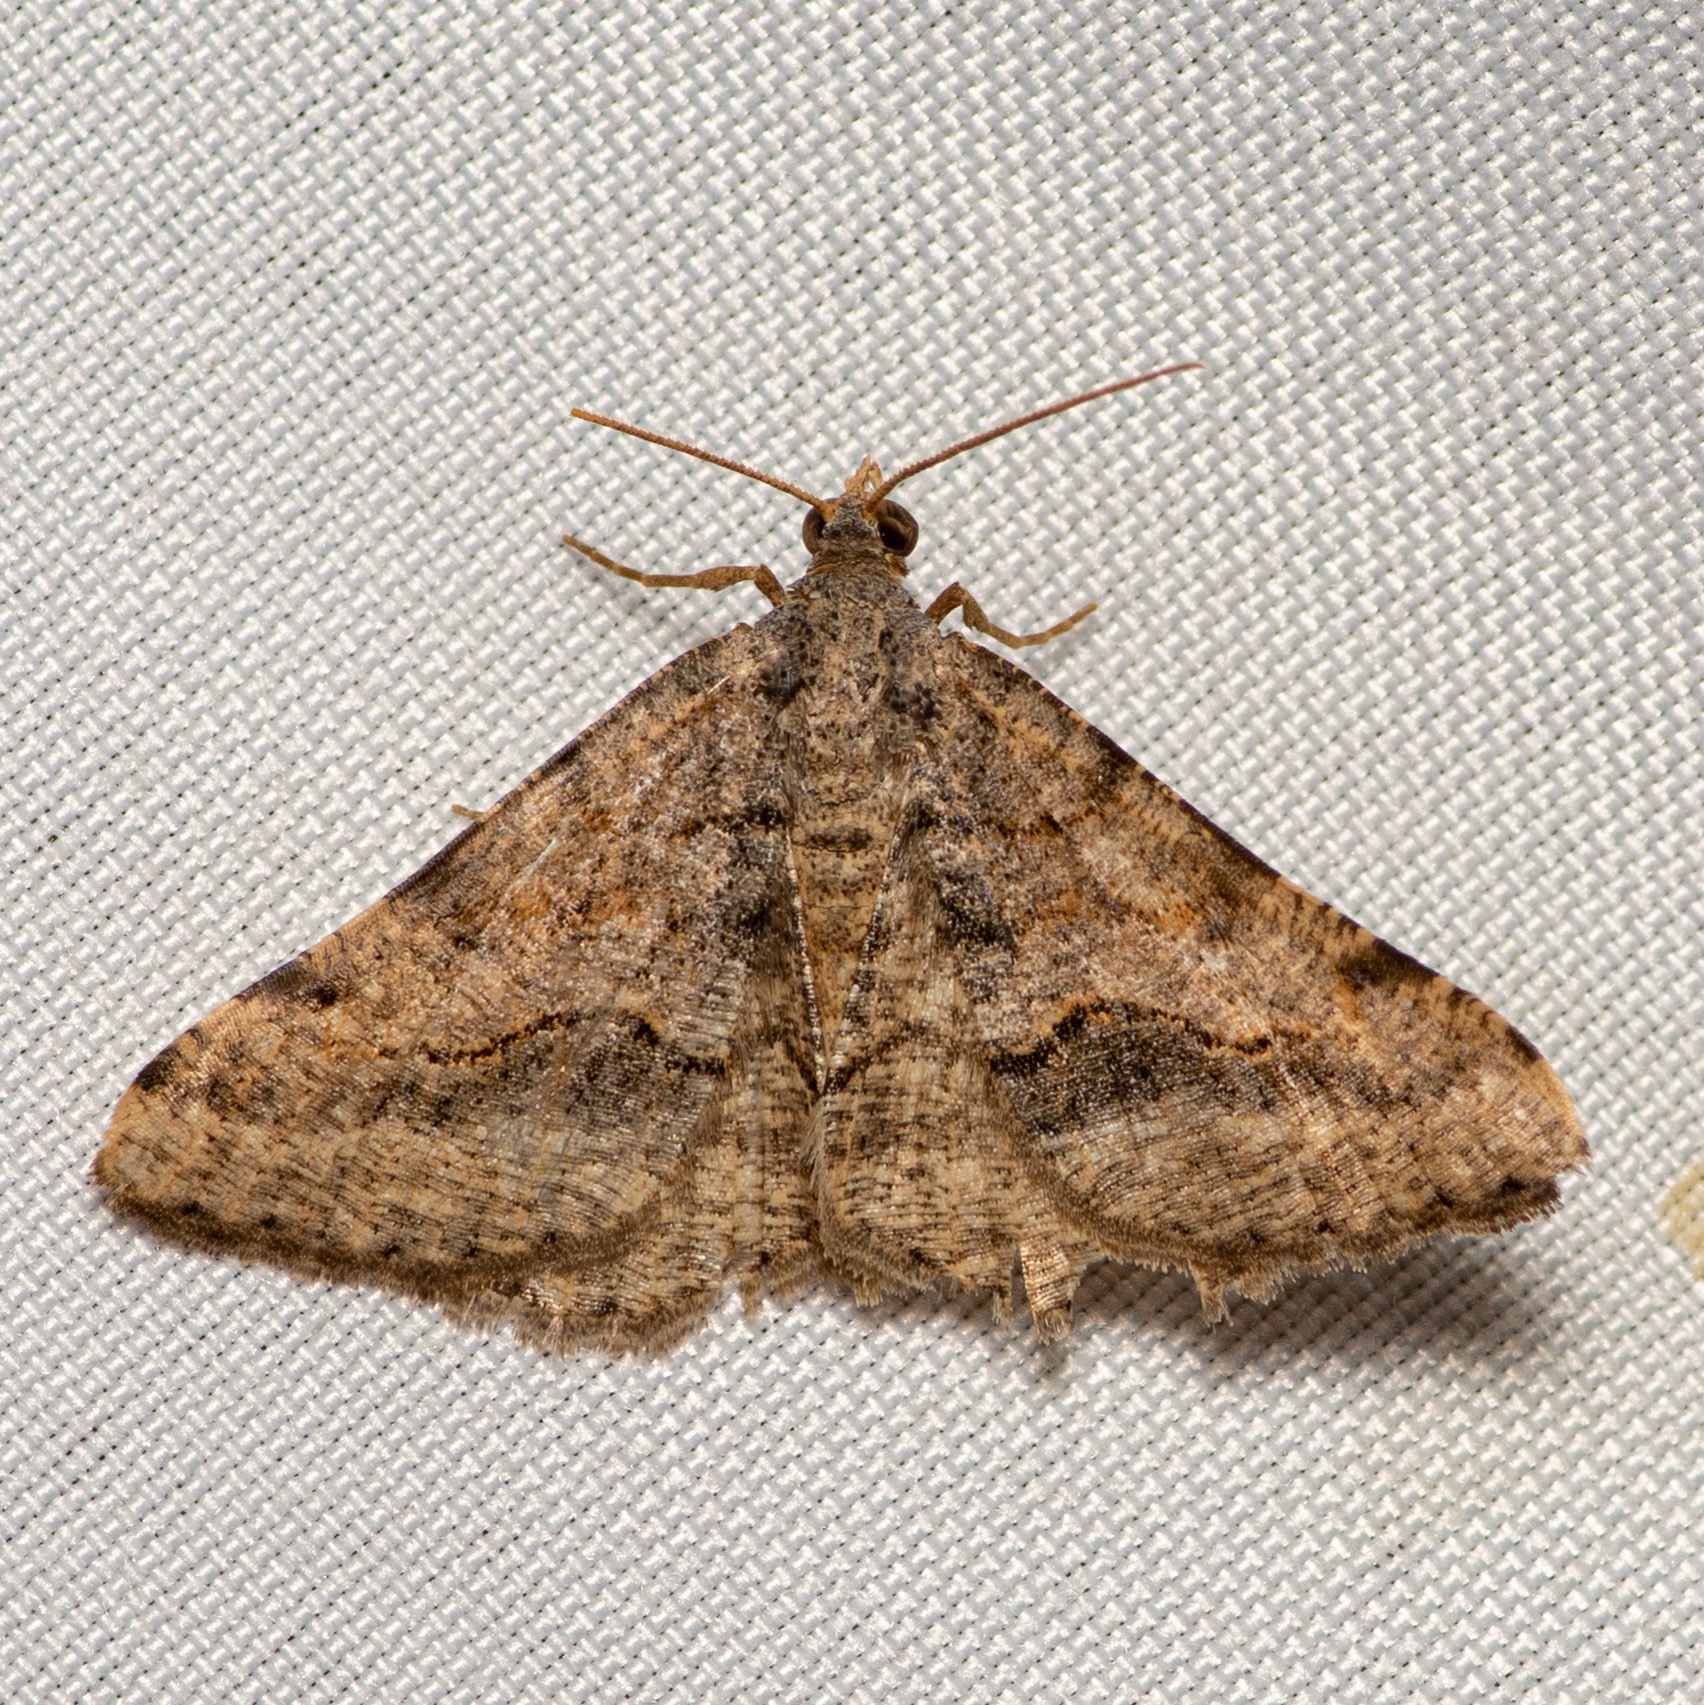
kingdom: Animalia
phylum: Arthropoda
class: Insecta
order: Lepidoptera
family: Geometridae
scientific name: Geometridae
